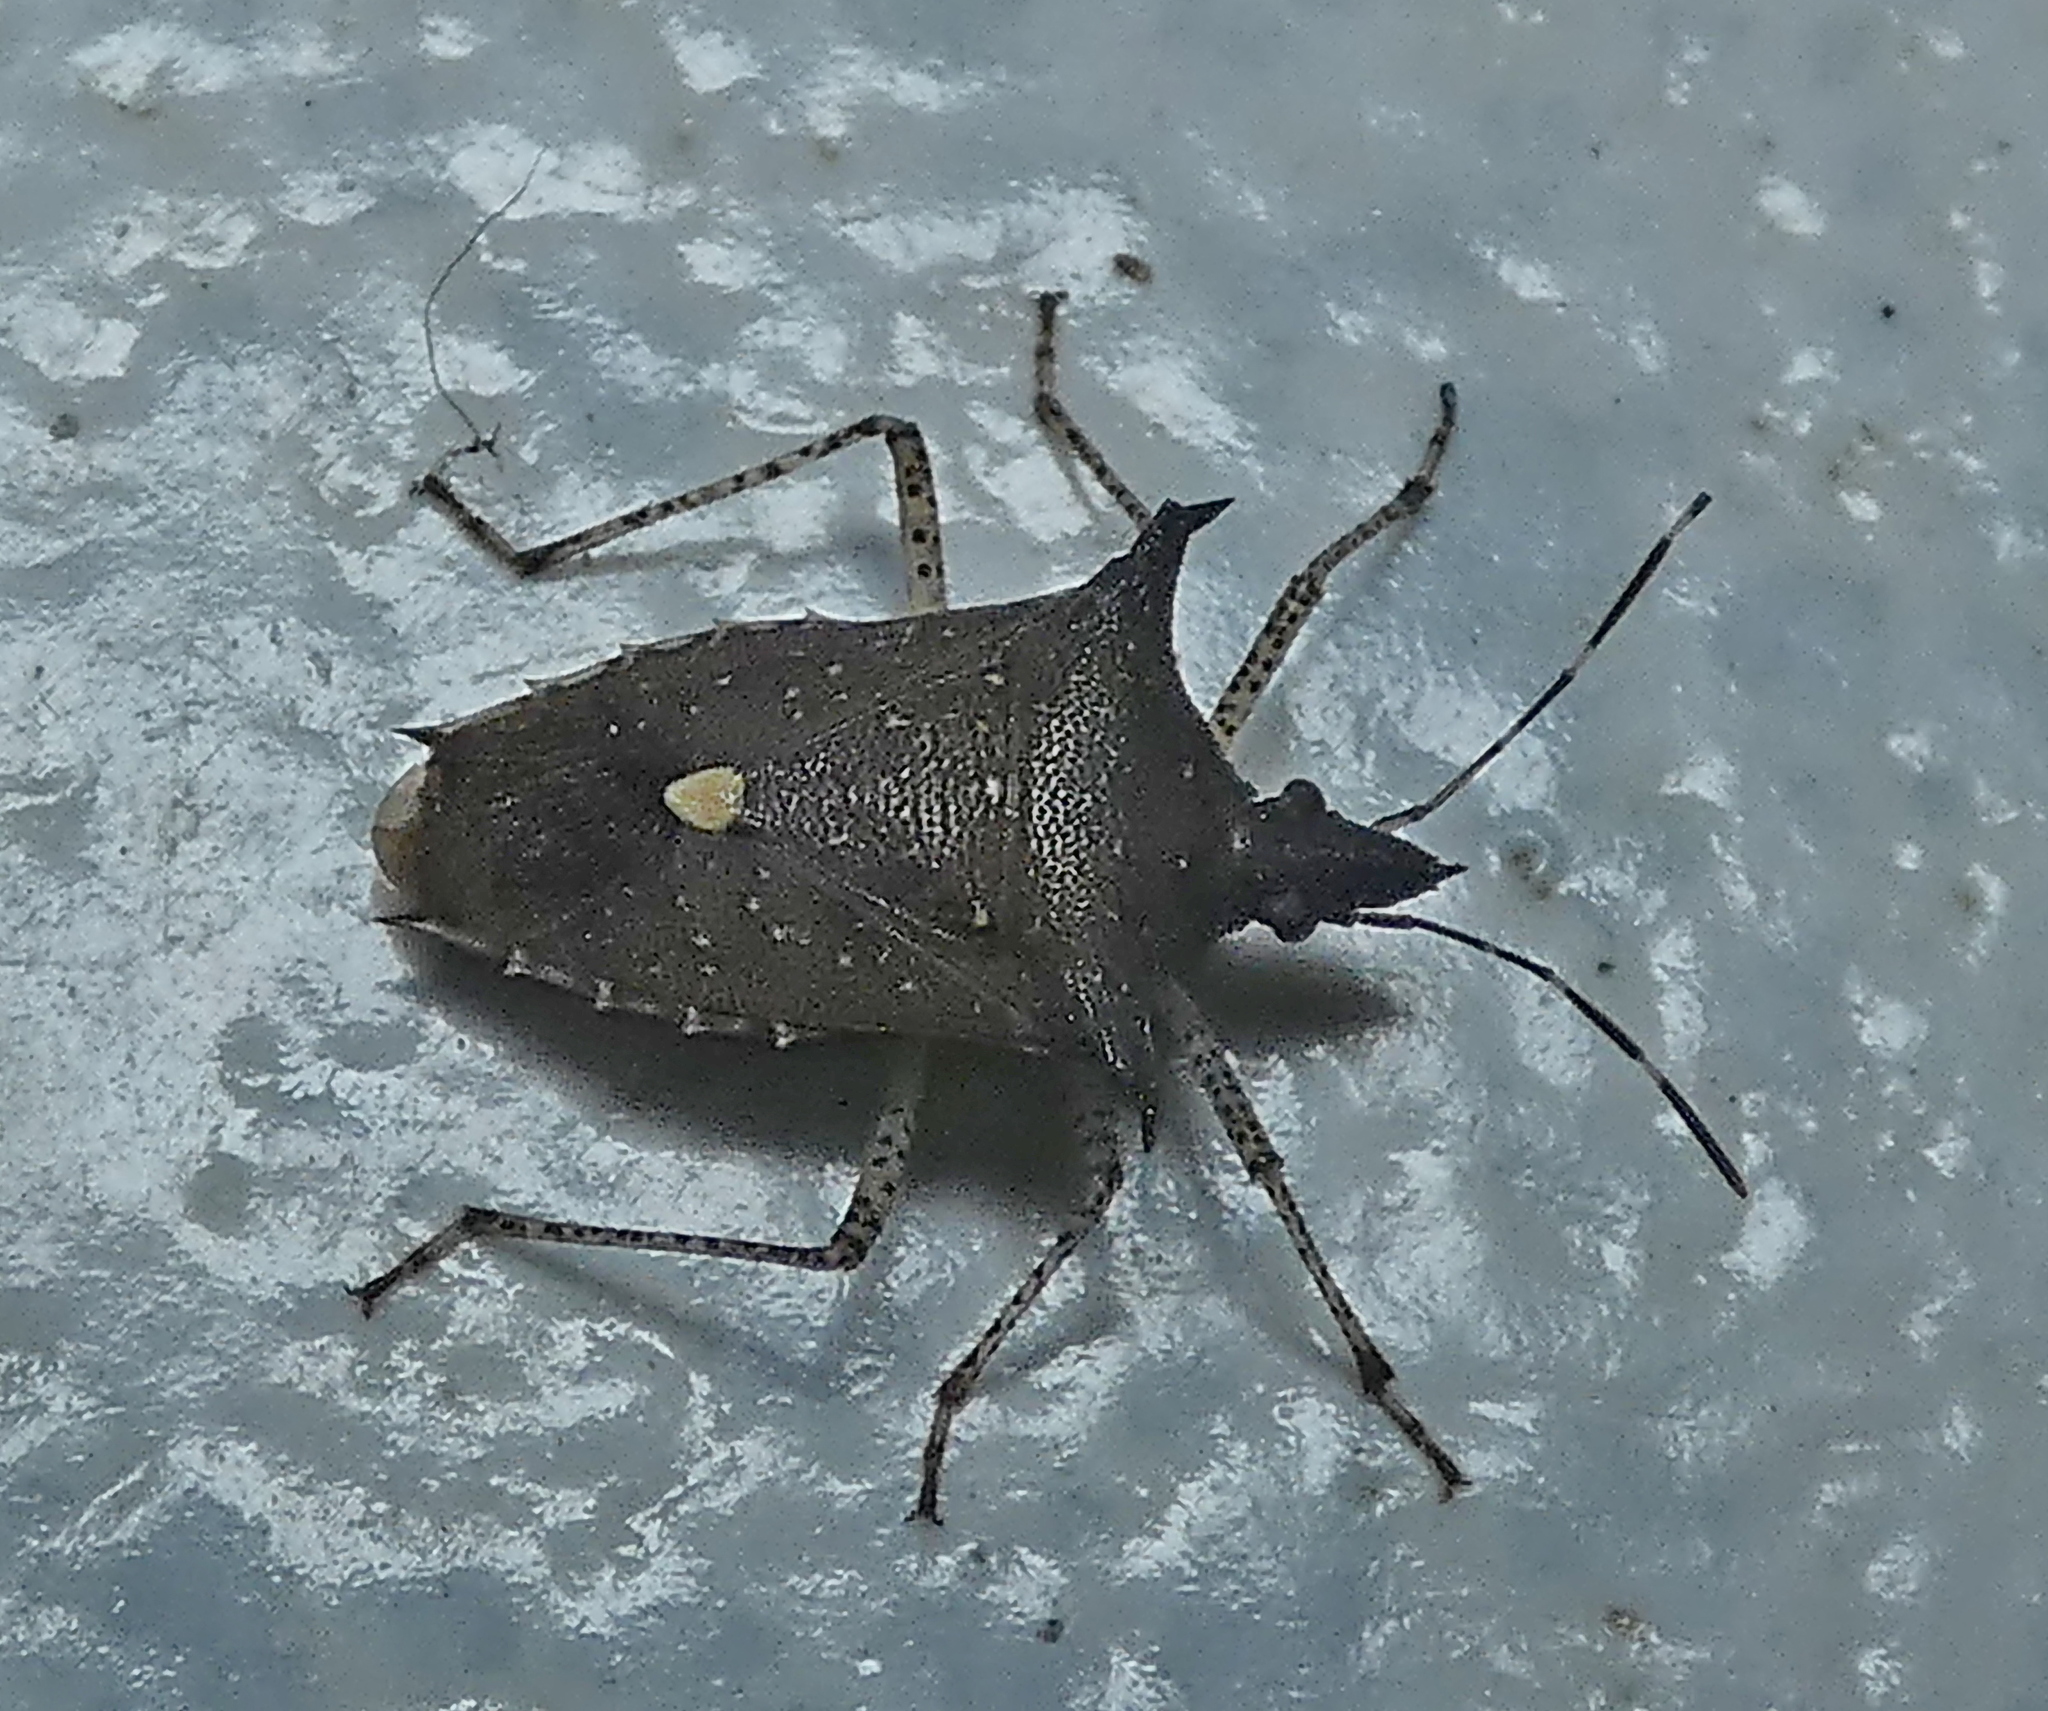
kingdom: Animalia
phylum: Arthropoda
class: Insecta
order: Hemiptera
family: Pentatomidae
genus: Proxys
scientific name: Proxys albopunctulatus
